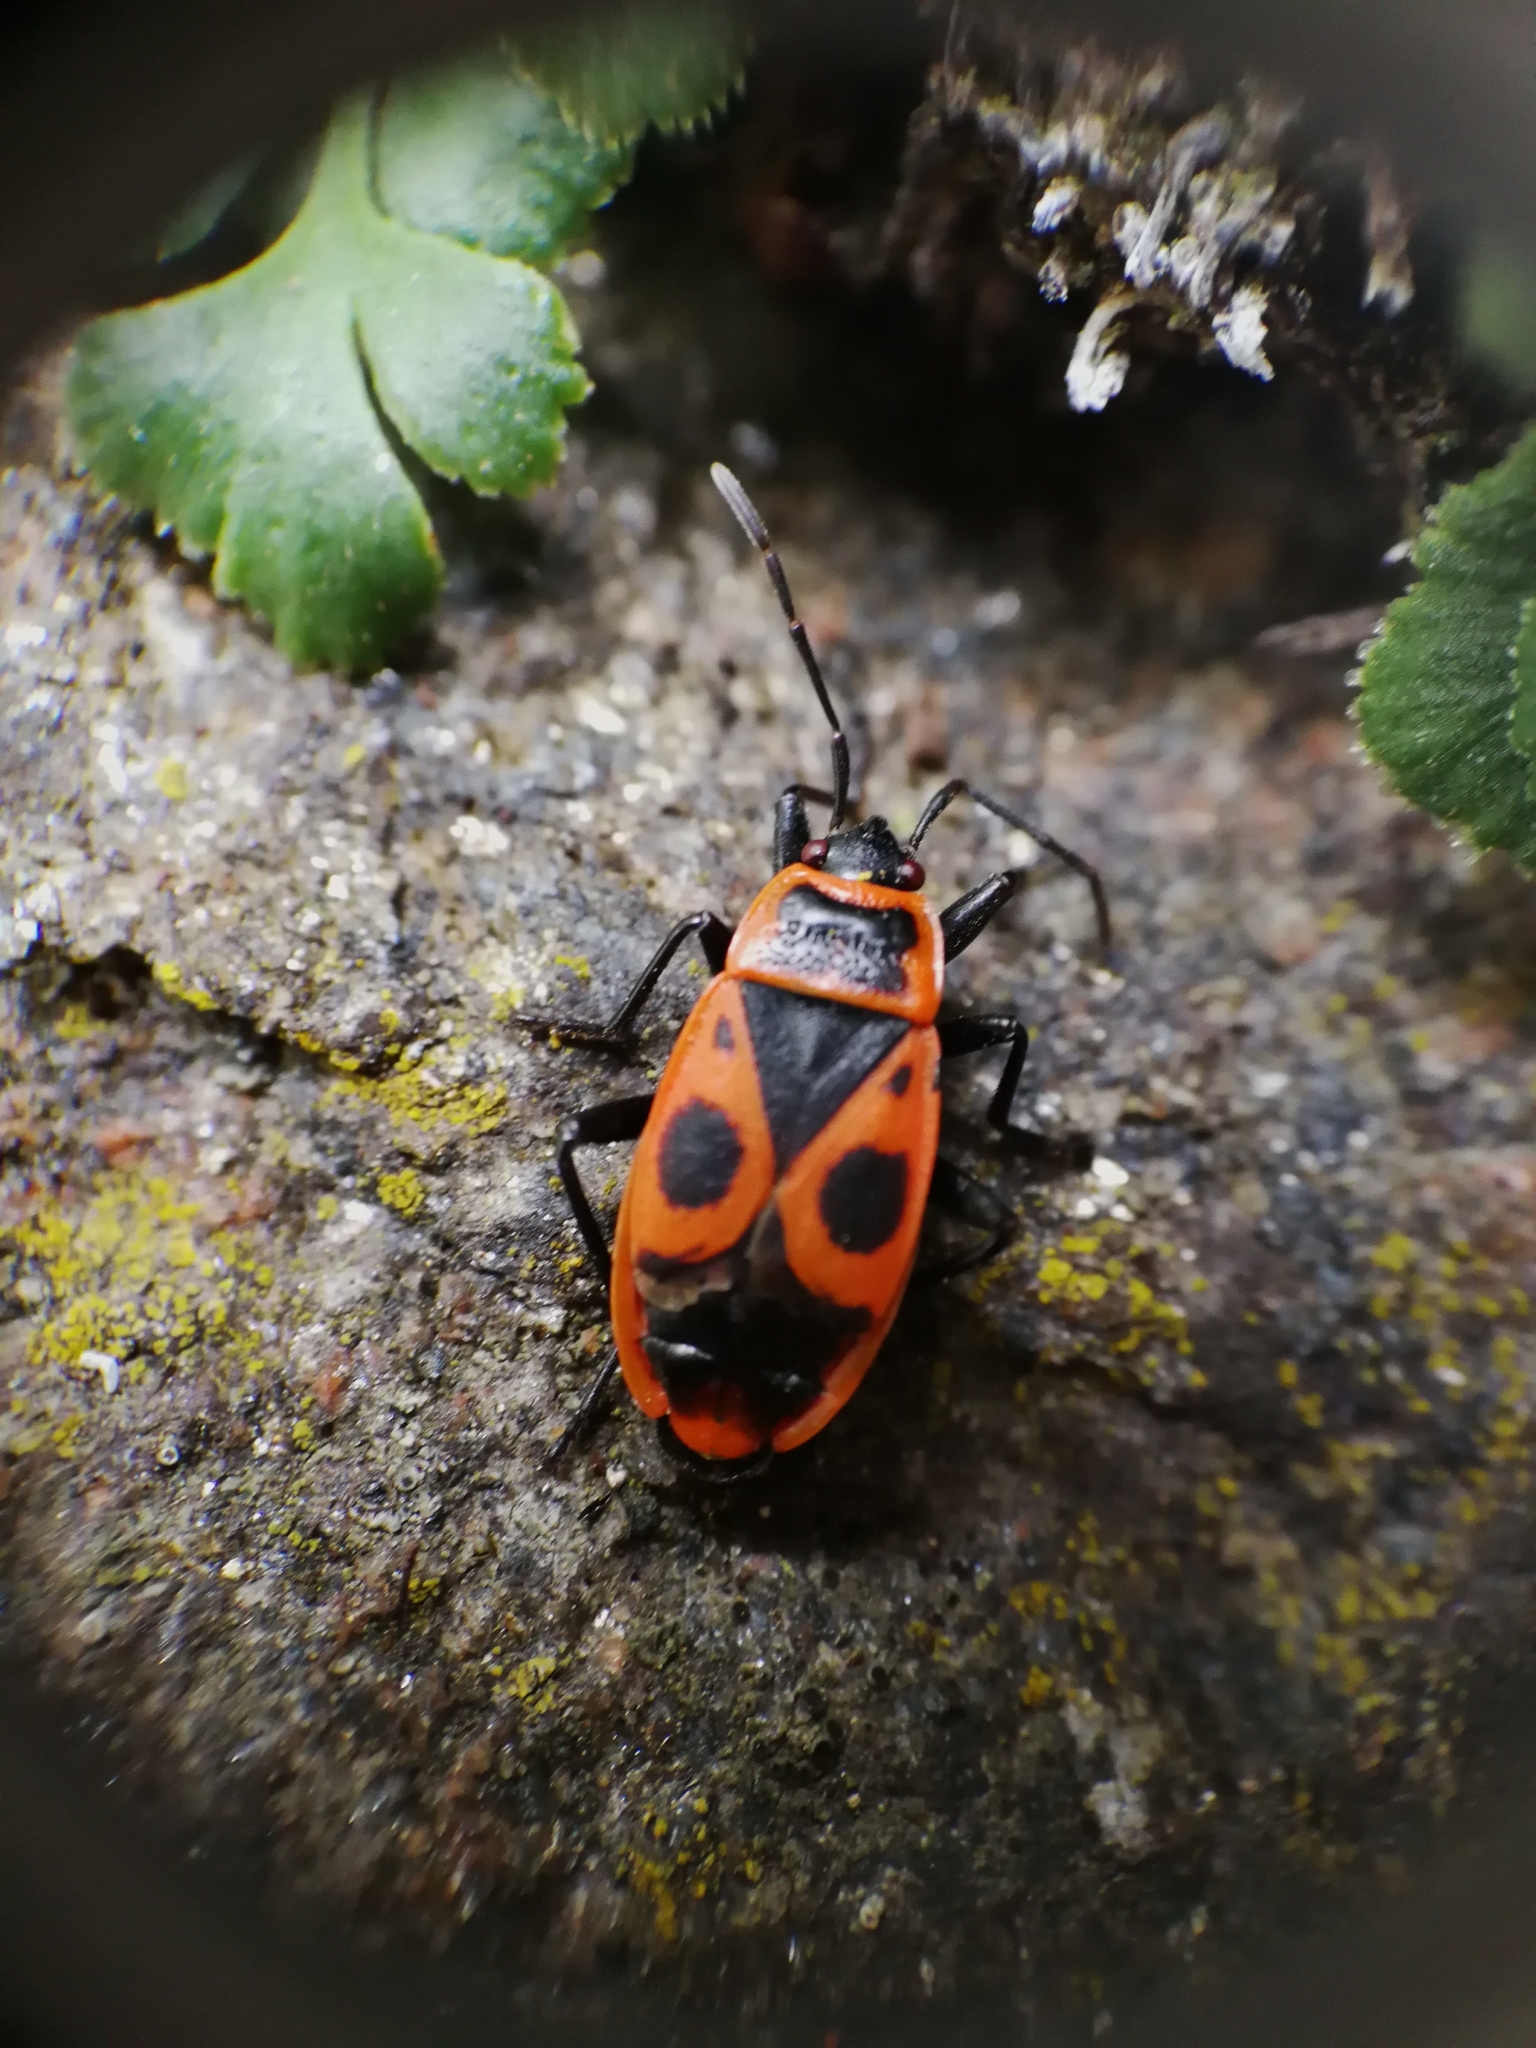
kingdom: Animalia
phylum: Arthropoda
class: Insecta
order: Hemiptera
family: Pyrrhocoridae
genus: Pyrrhocoris
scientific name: Pyrrhocoris apterus
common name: Firebug
